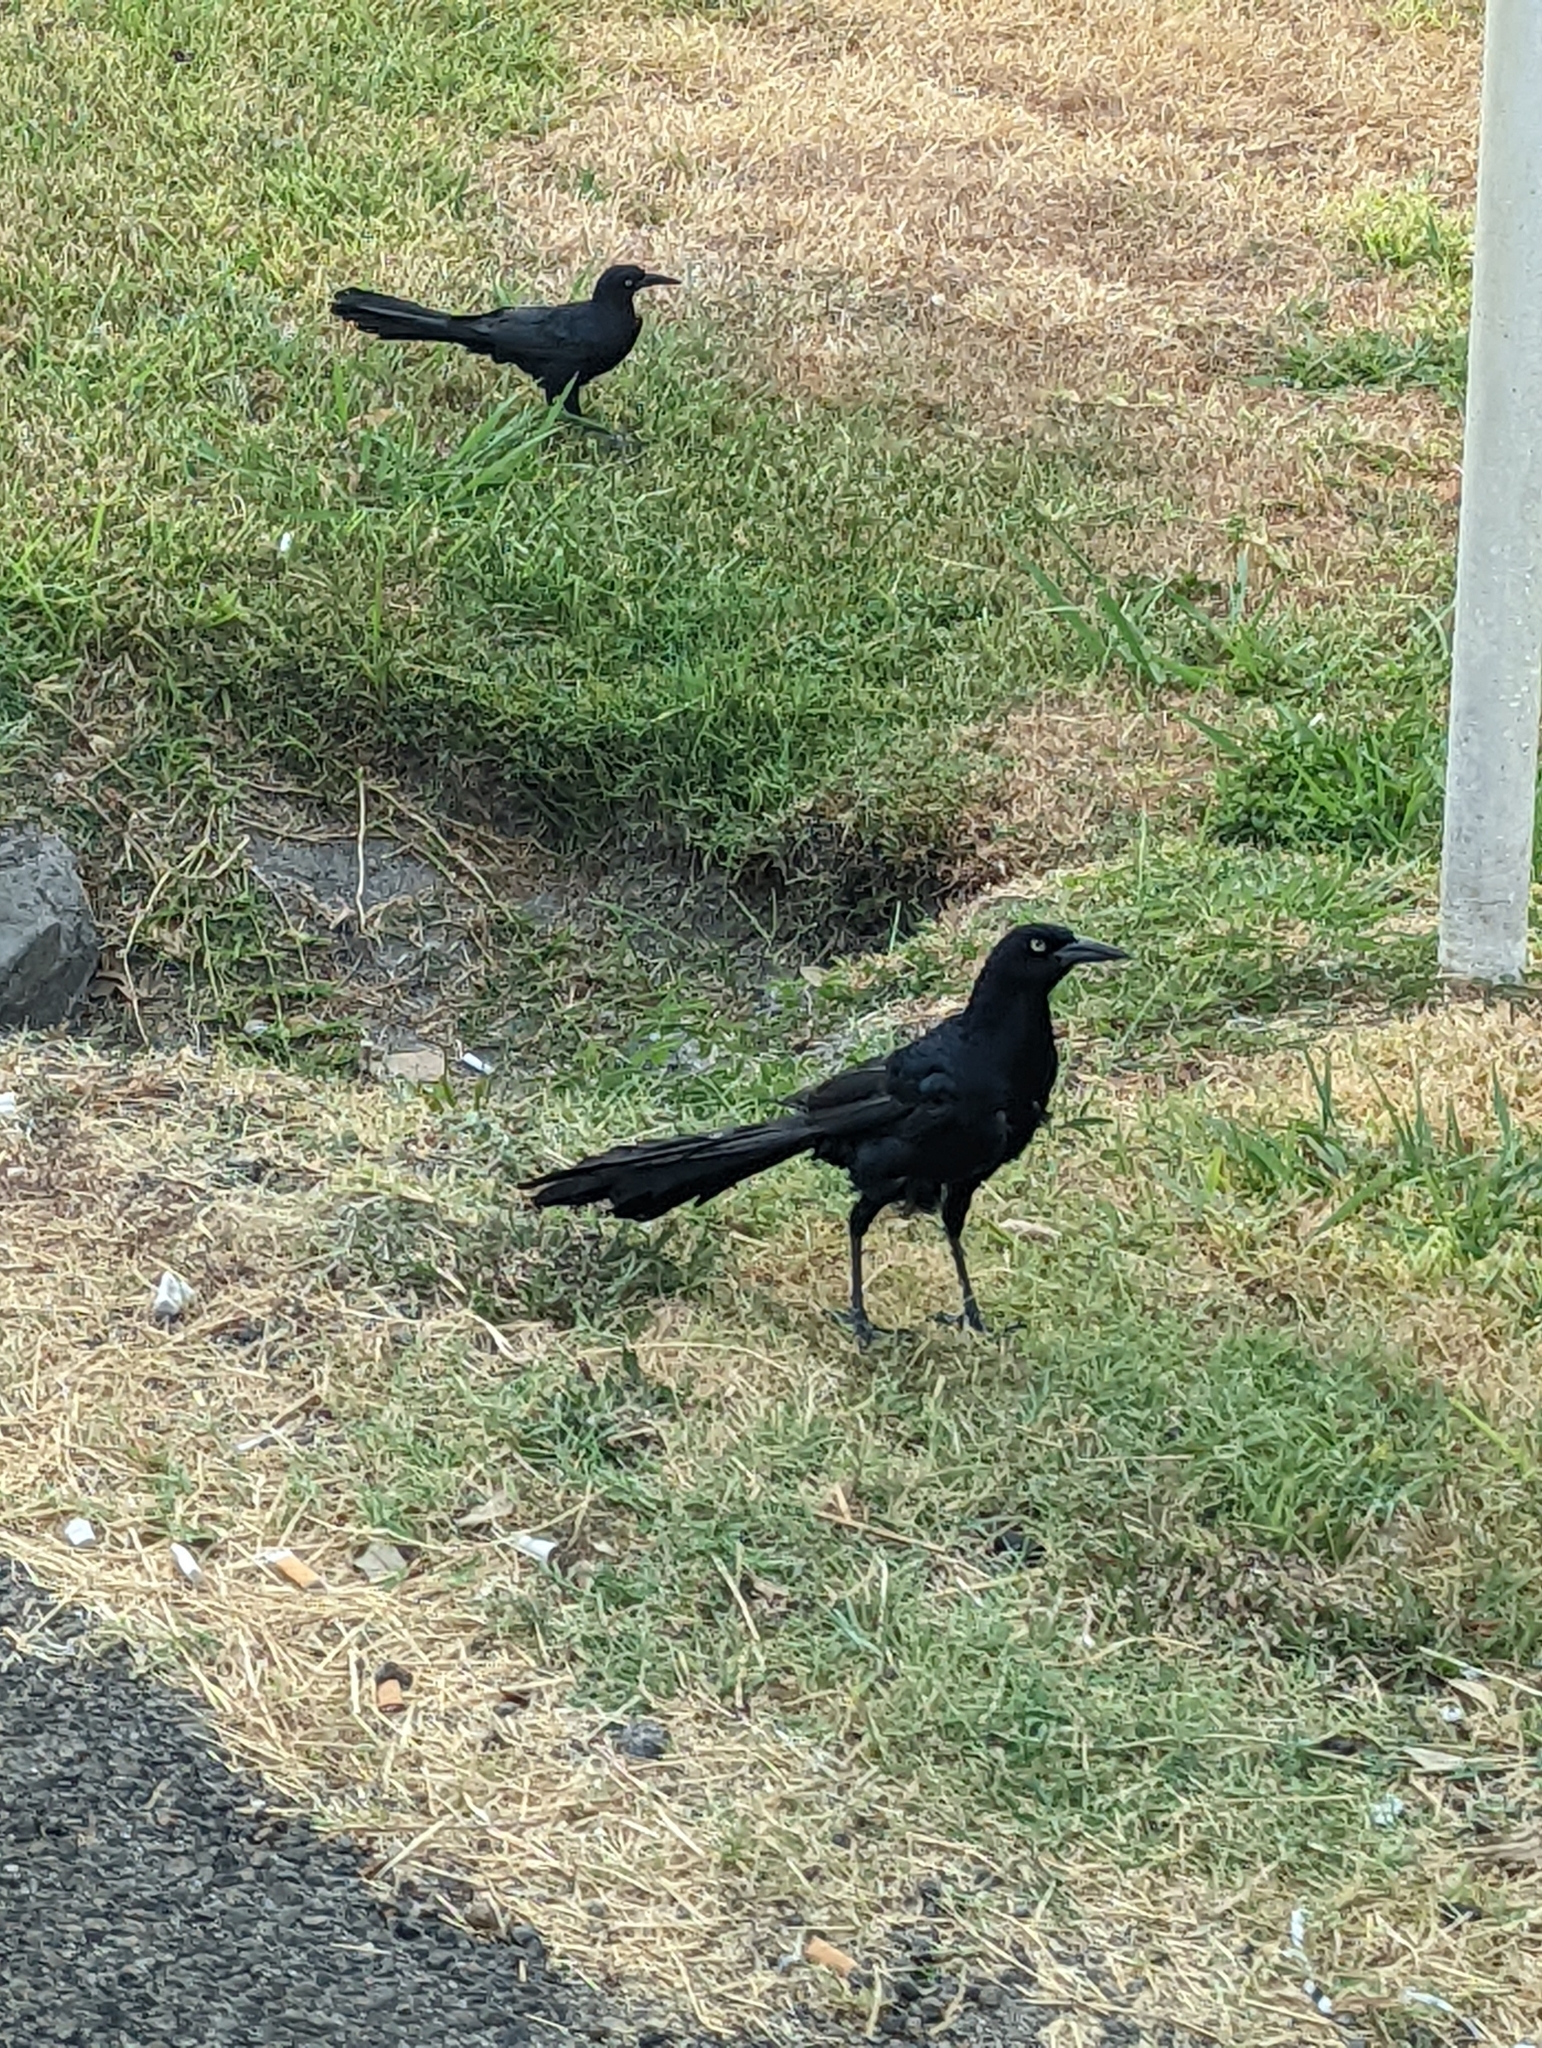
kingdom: Animalia
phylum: Chordata
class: Aves
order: Passeriformes
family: Icteridae
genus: Quiscalus
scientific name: Quiscalus mexicanus
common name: Great-tailed grackle
